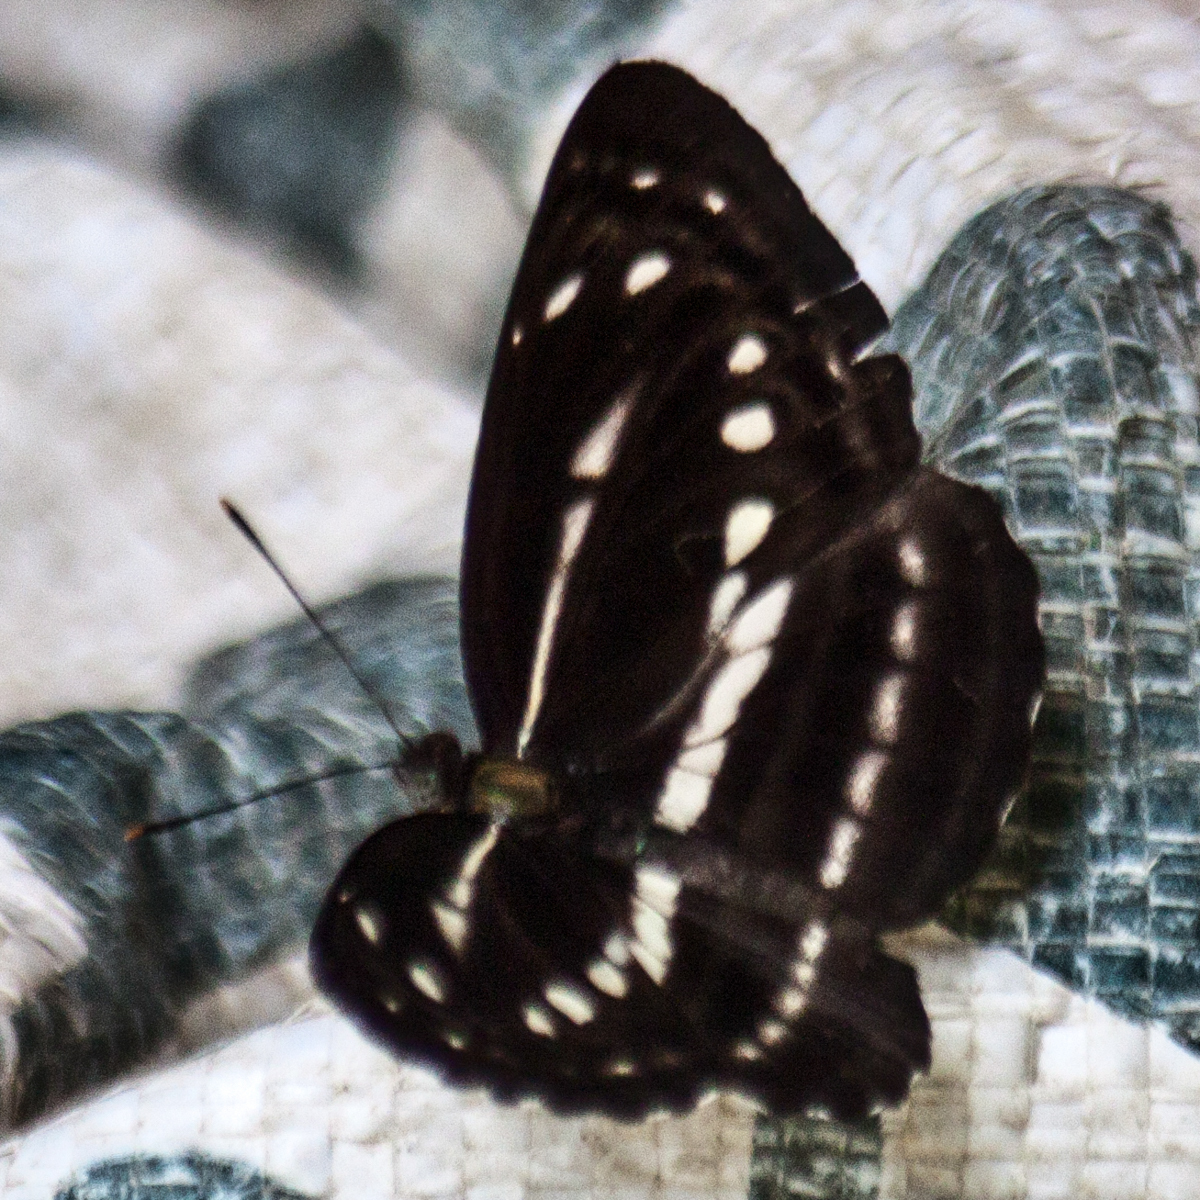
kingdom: Animalia
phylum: Arthropoda
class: Insecta
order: Lepidoptera
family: Nymphalidae
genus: Neptis
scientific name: Neptis nata
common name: Sullied brown sailer
